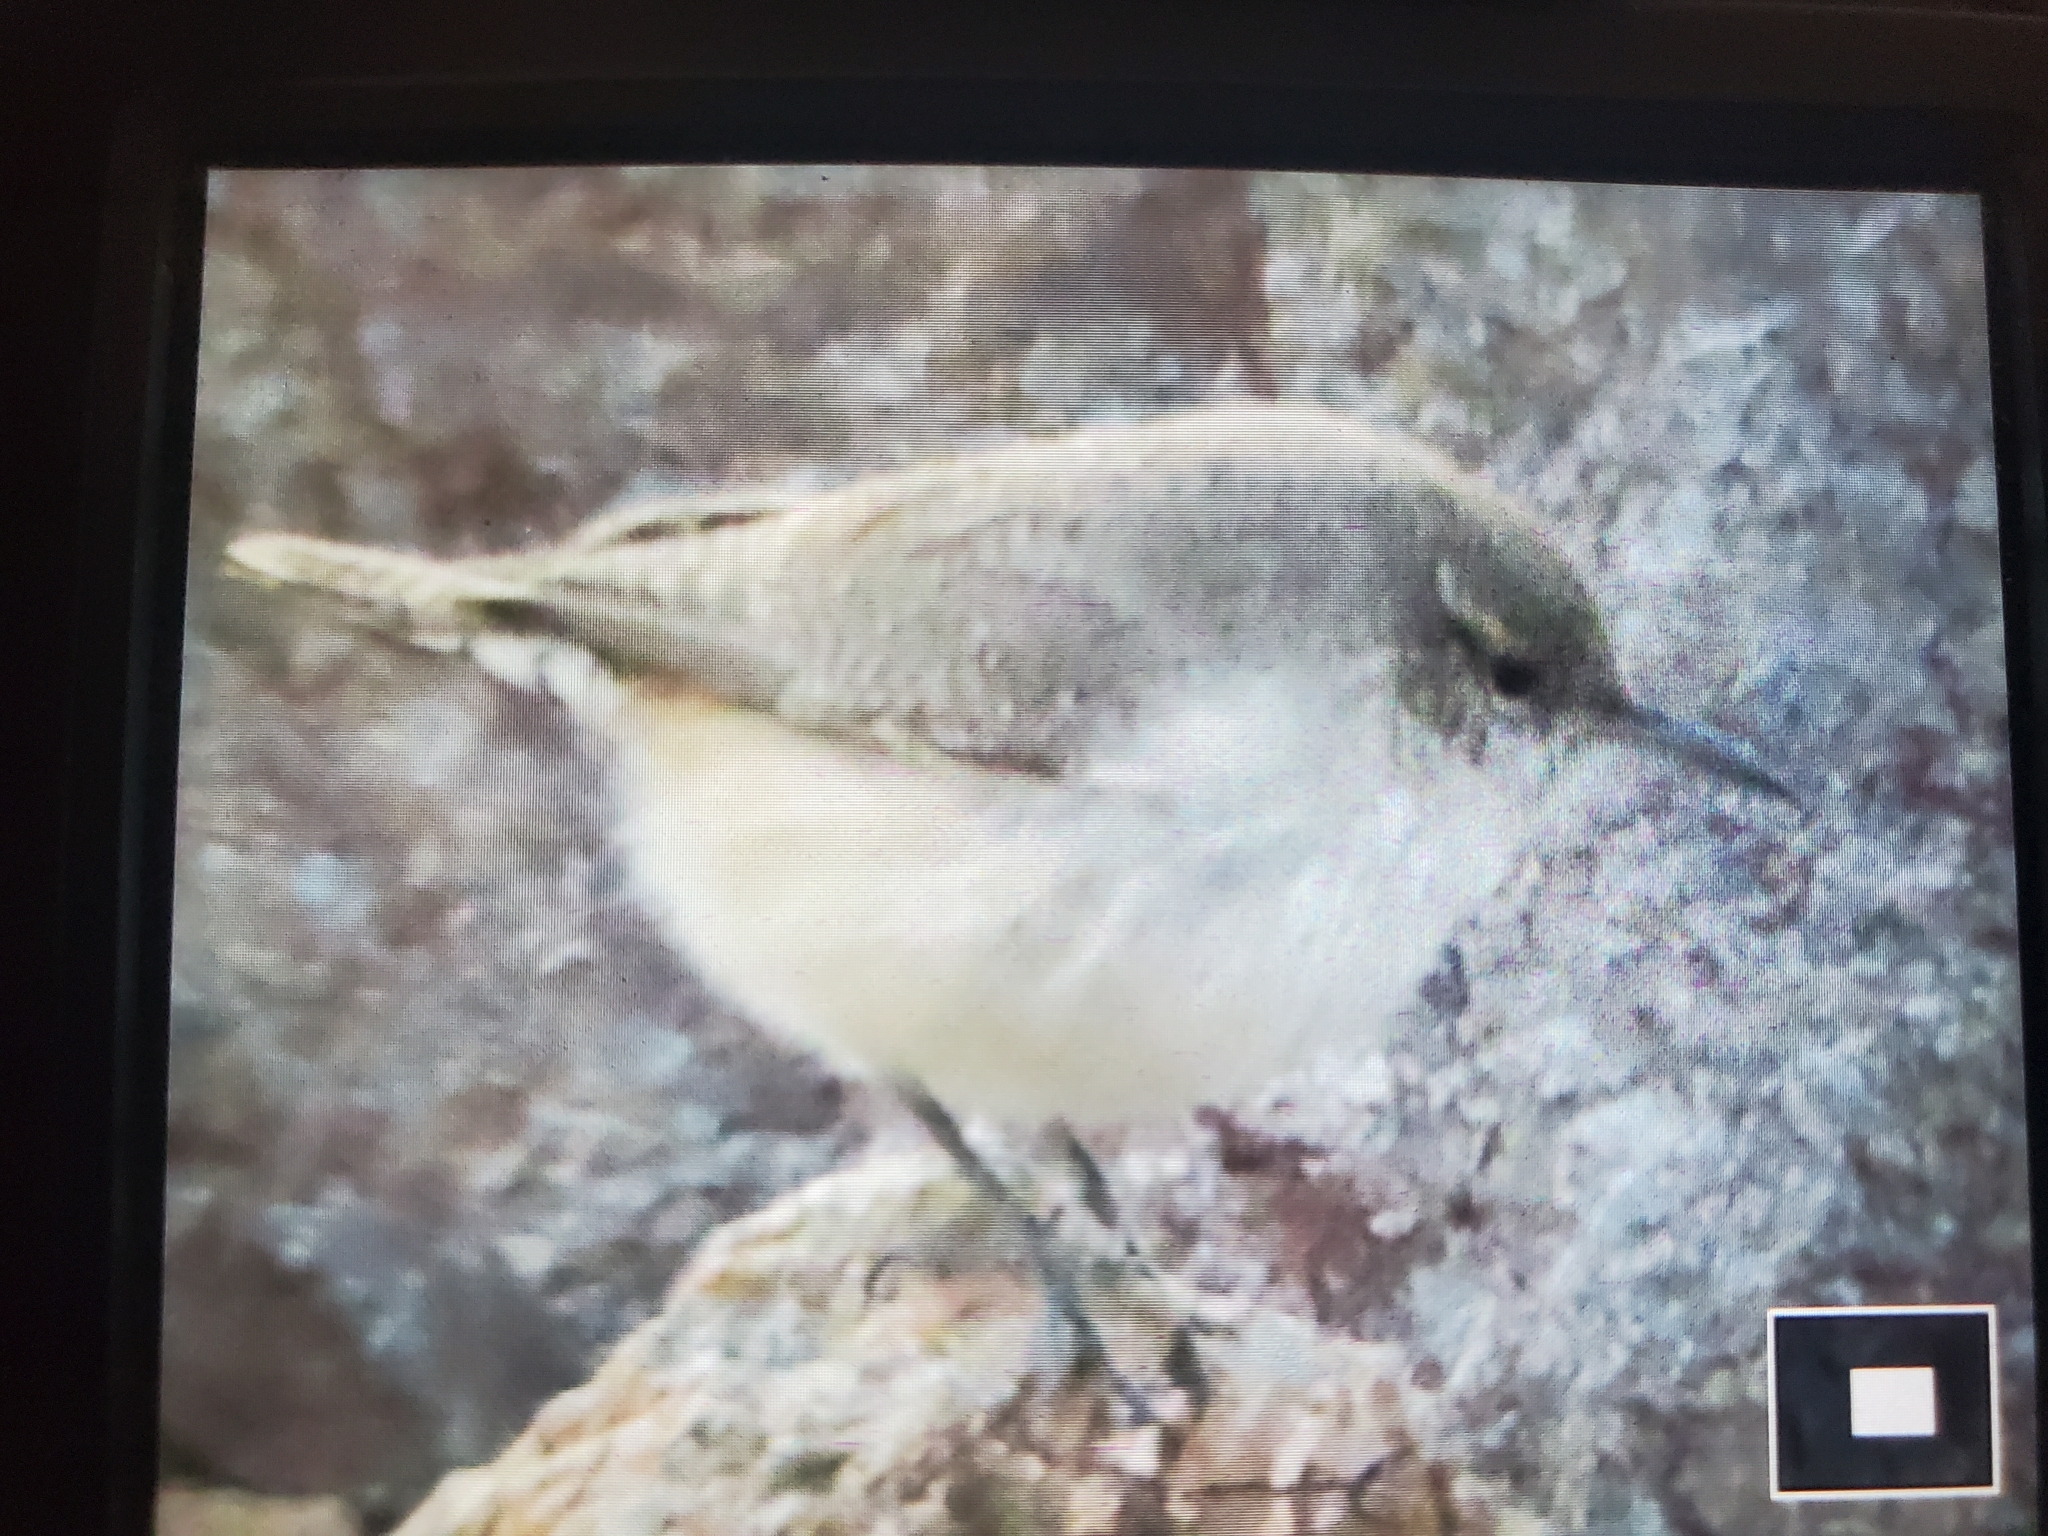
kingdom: Animalia
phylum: Chordata
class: Aves
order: Passeriformes
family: Troglodytidae
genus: Salpinctes
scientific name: Salpinctes obsoletus
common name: Rock wren
